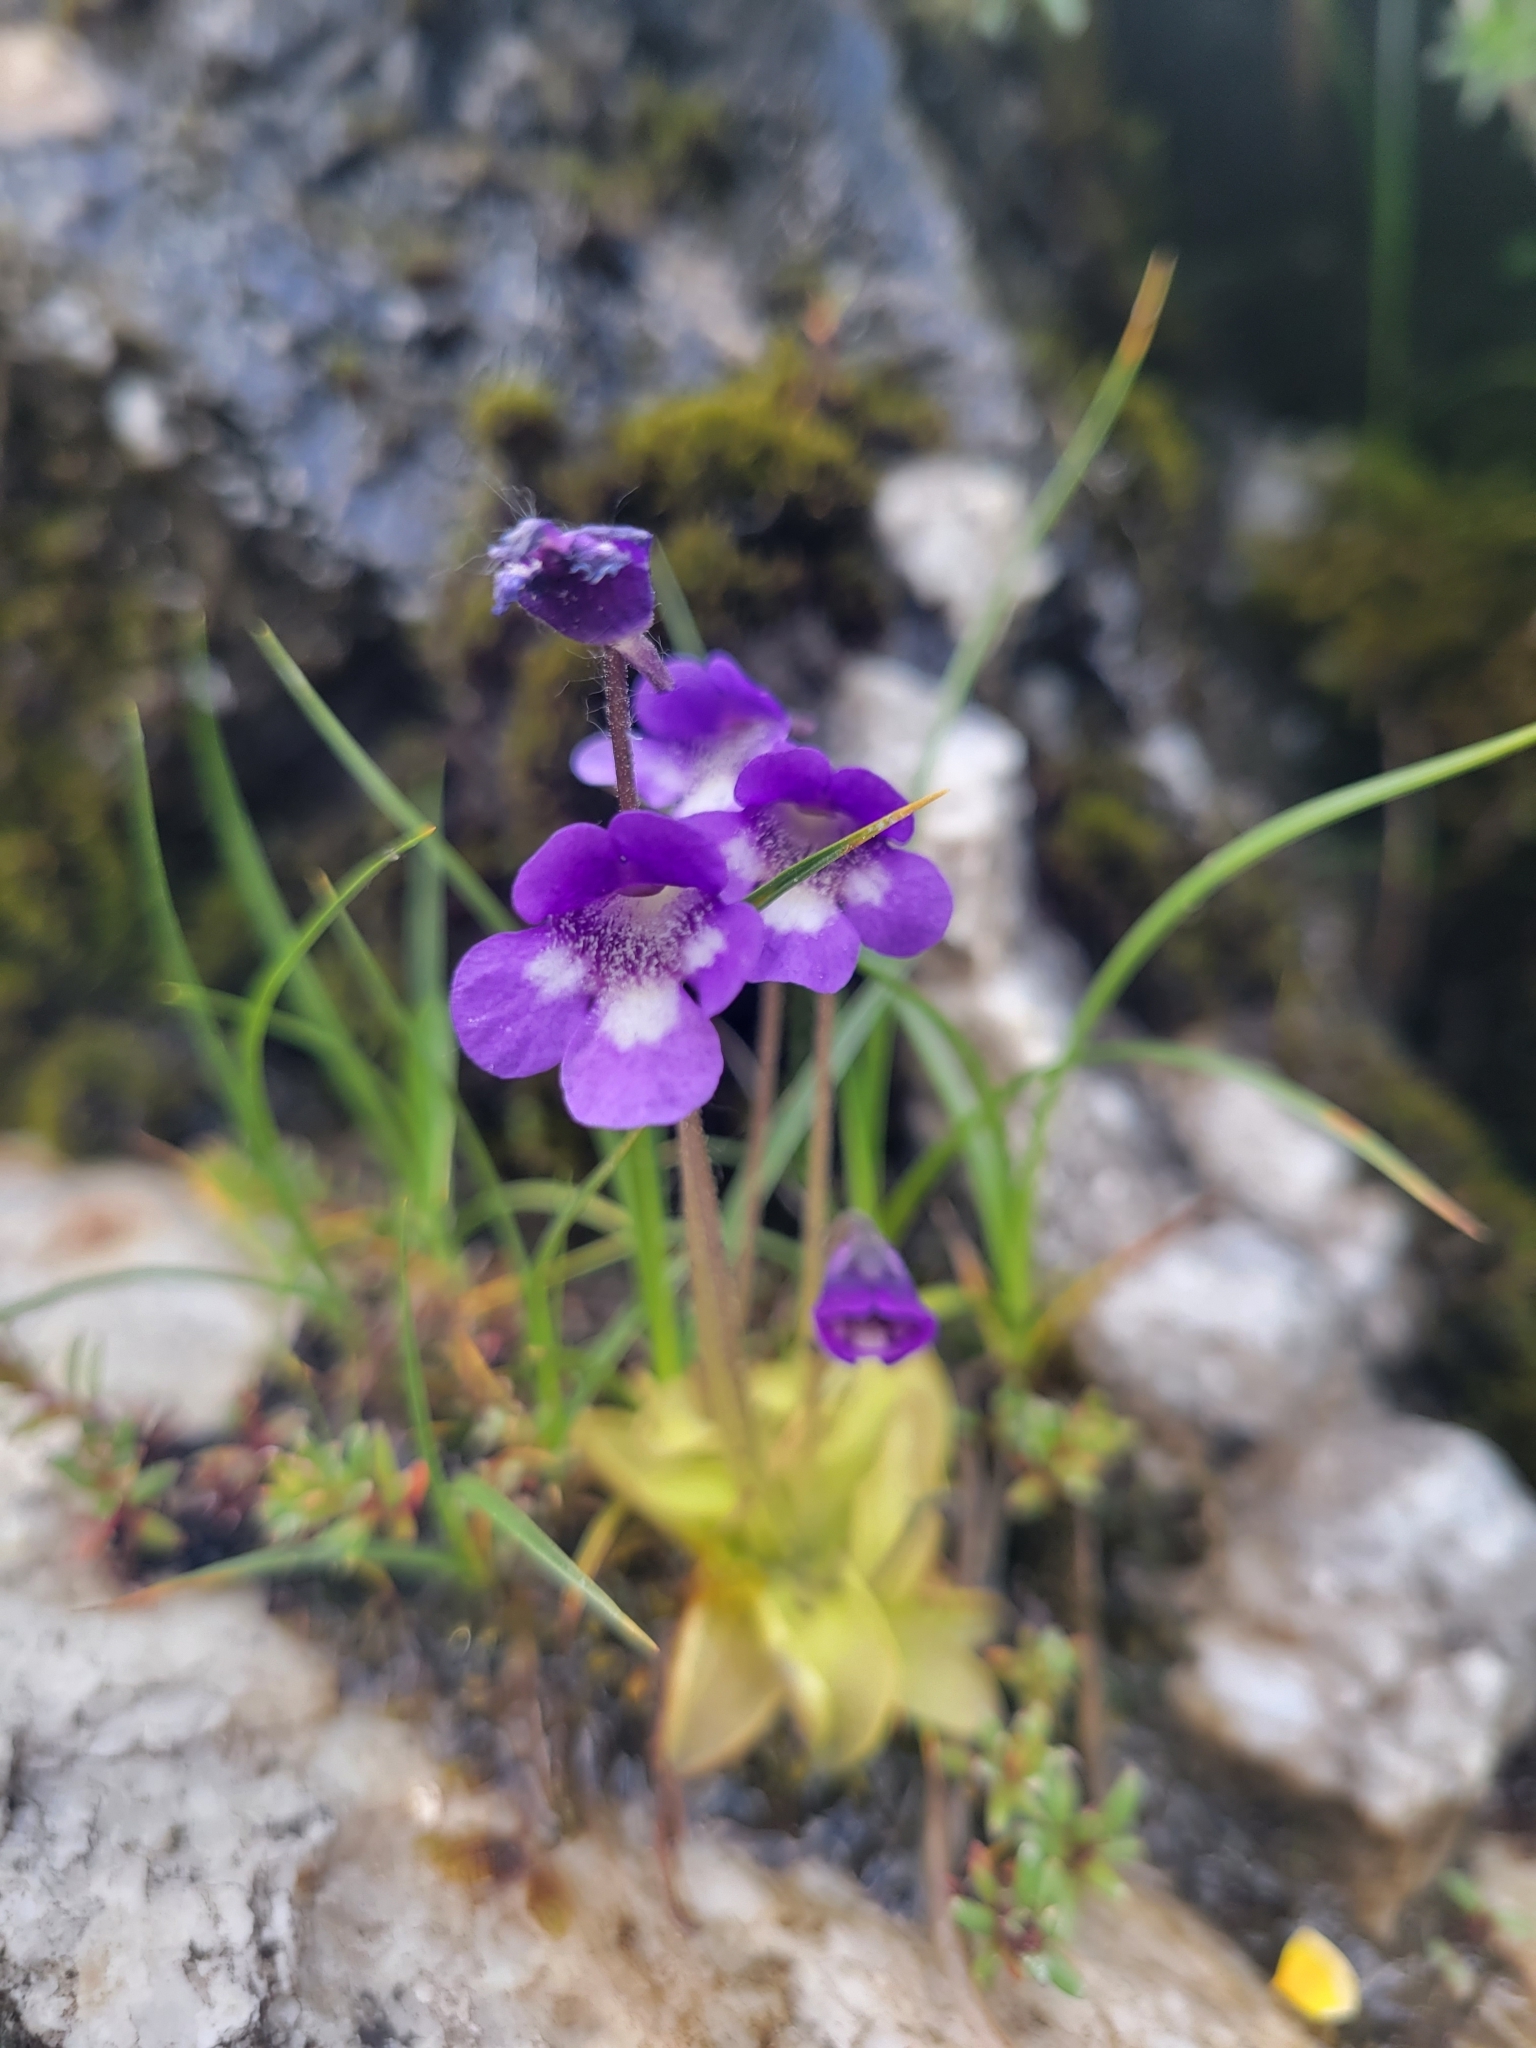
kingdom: Plantae
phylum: Tracheophyta
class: Magnoliopsida
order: Lamiales
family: Lentibulariaceae
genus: Pinguicula
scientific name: Pinguicula leptoceras
